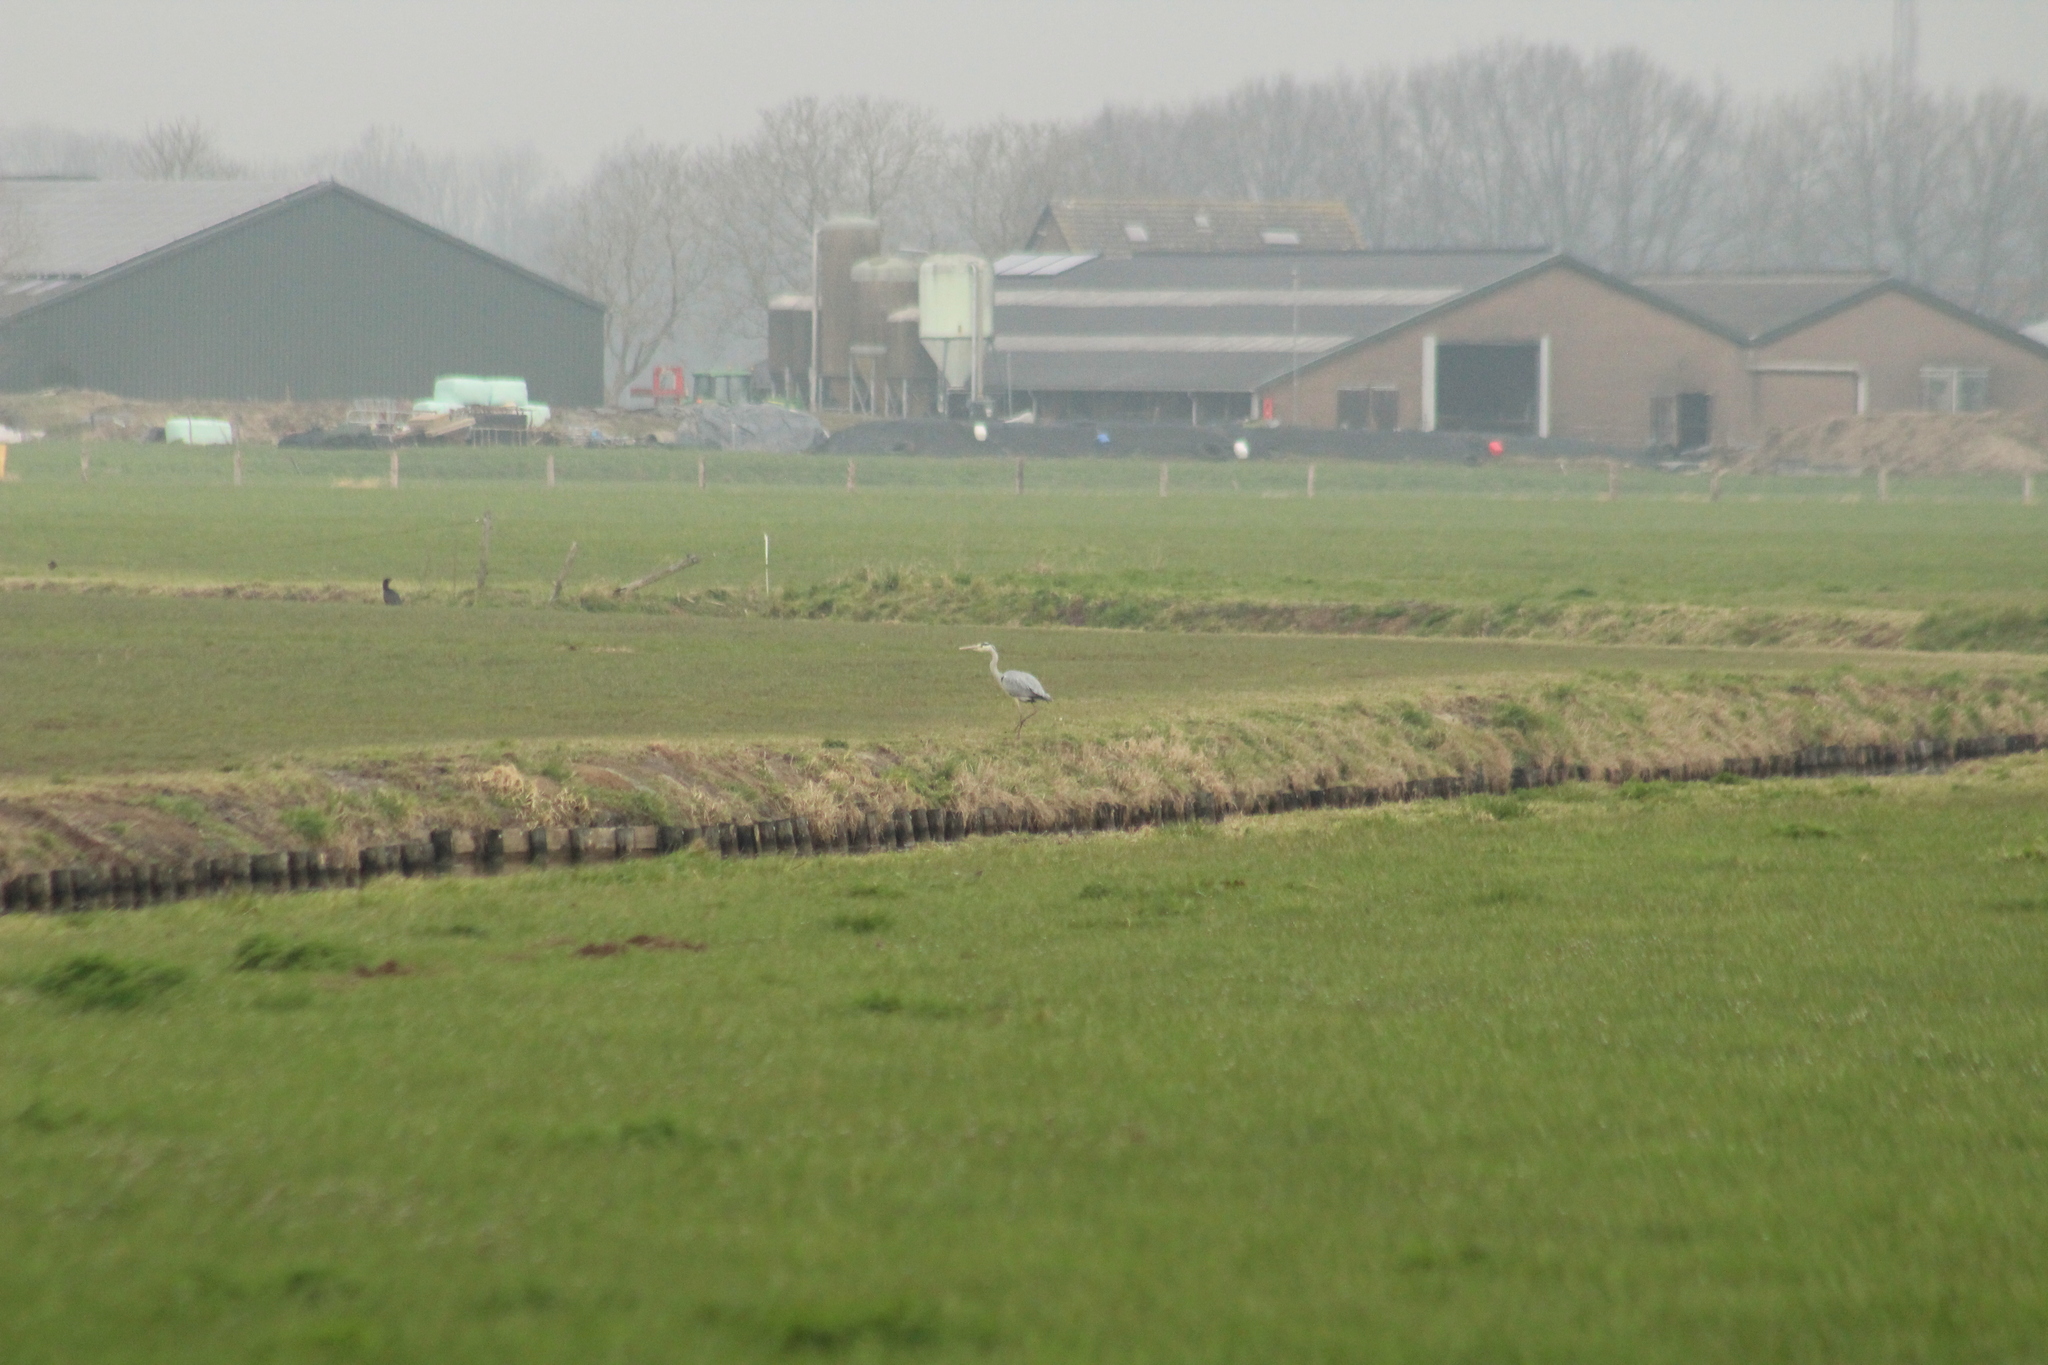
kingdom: Animalia
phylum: Chordata
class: Aves
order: Pelecaniformes
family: Ardeidae
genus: Ardea
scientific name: Ardea cinerea
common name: Grey heron
